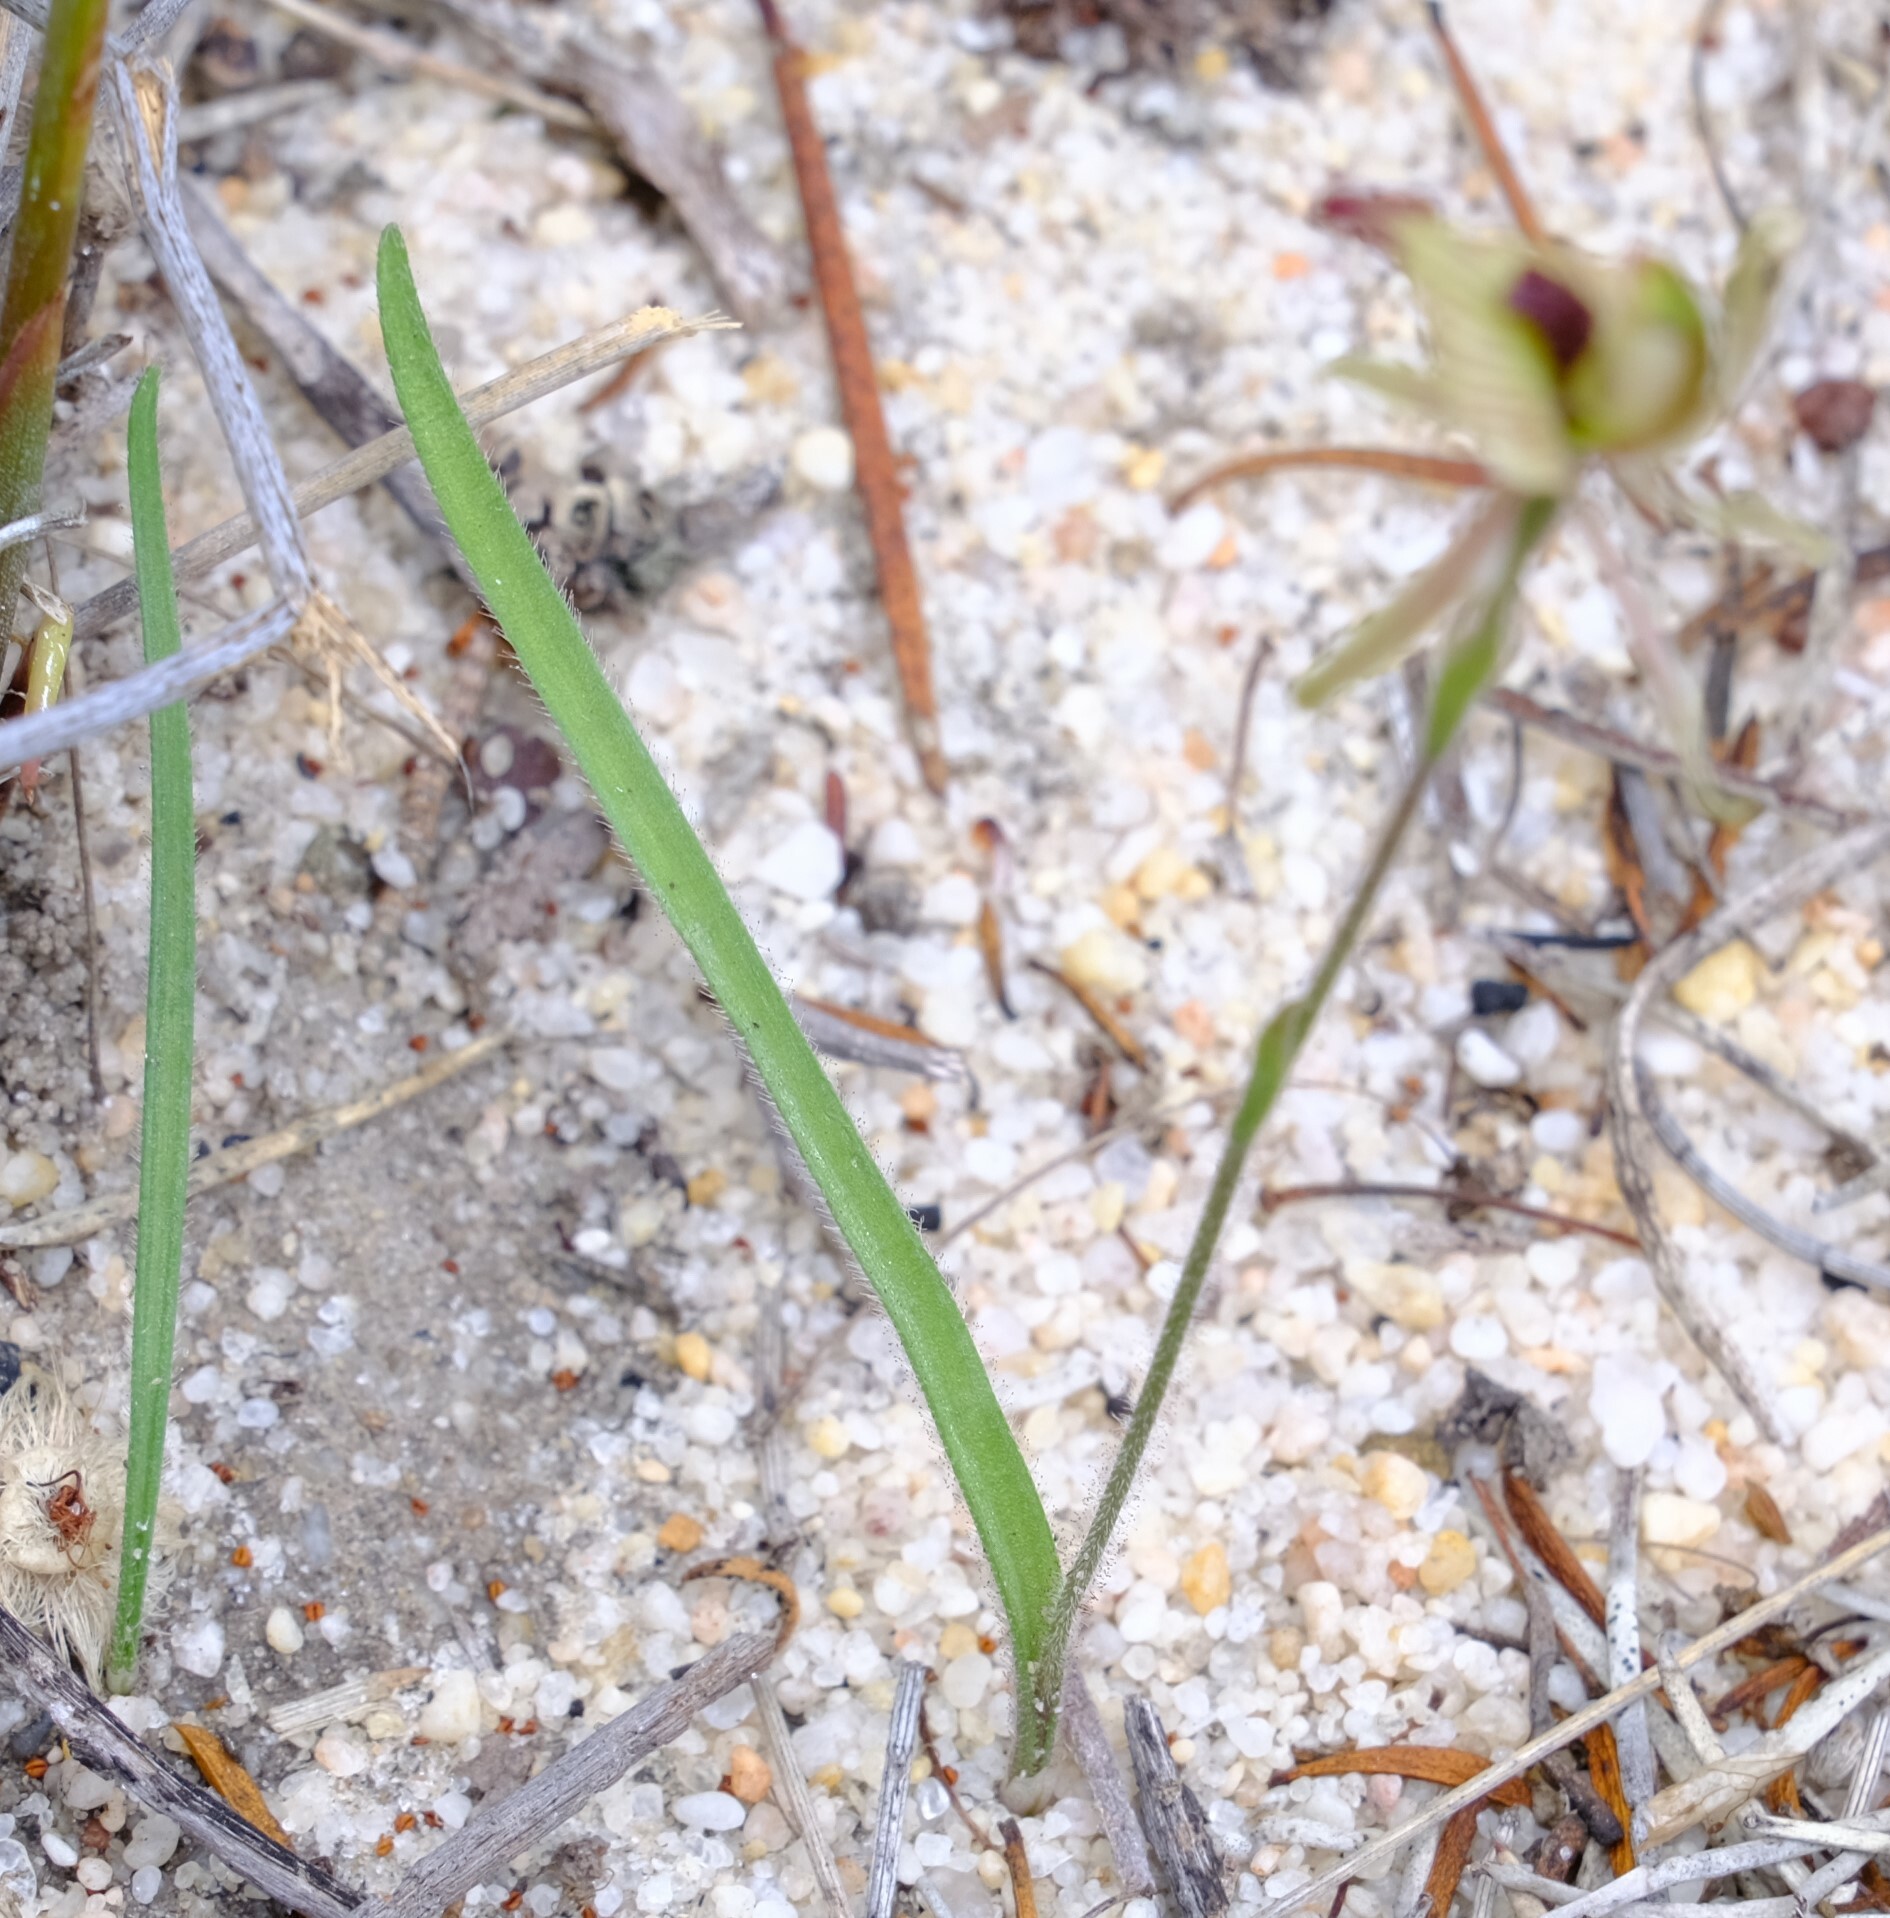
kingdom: Plantae
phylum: Tracheophyta
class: Liliopsida
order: Asparagales
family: Orchidaceae
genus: Caladenia
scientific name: Caladenia pachychila
